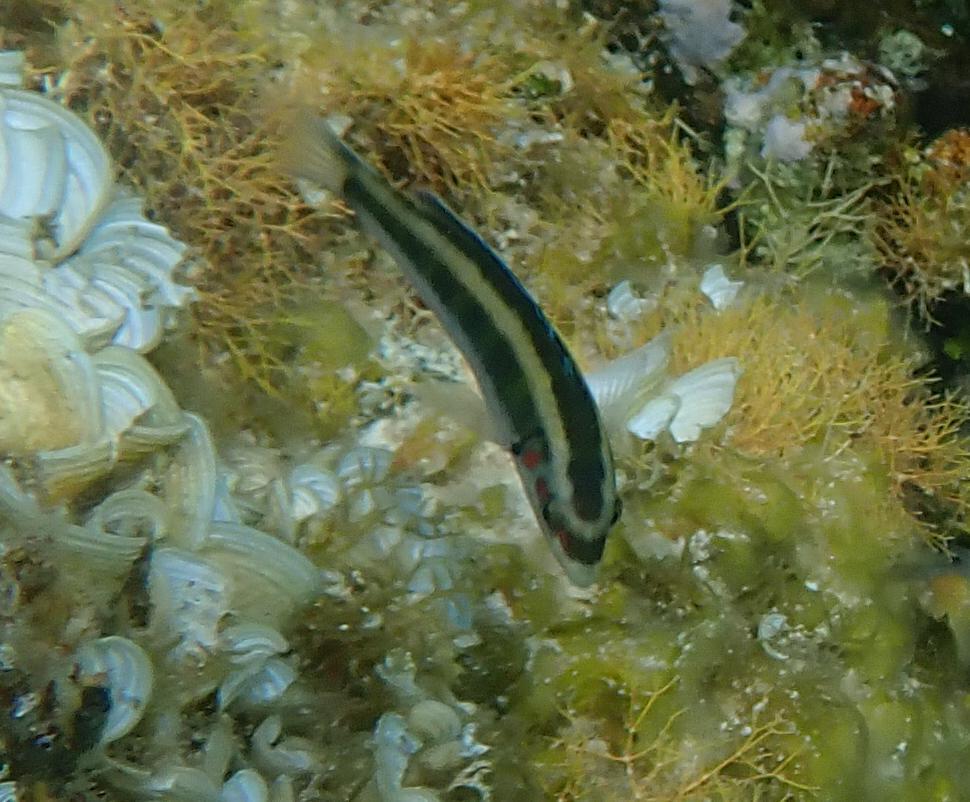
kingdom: Animalia
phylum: Chordata
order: Perciformes
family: Labridae
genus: Thalassoma
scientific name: Thalassoma bifasciatum
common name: Bluehead wrasse
